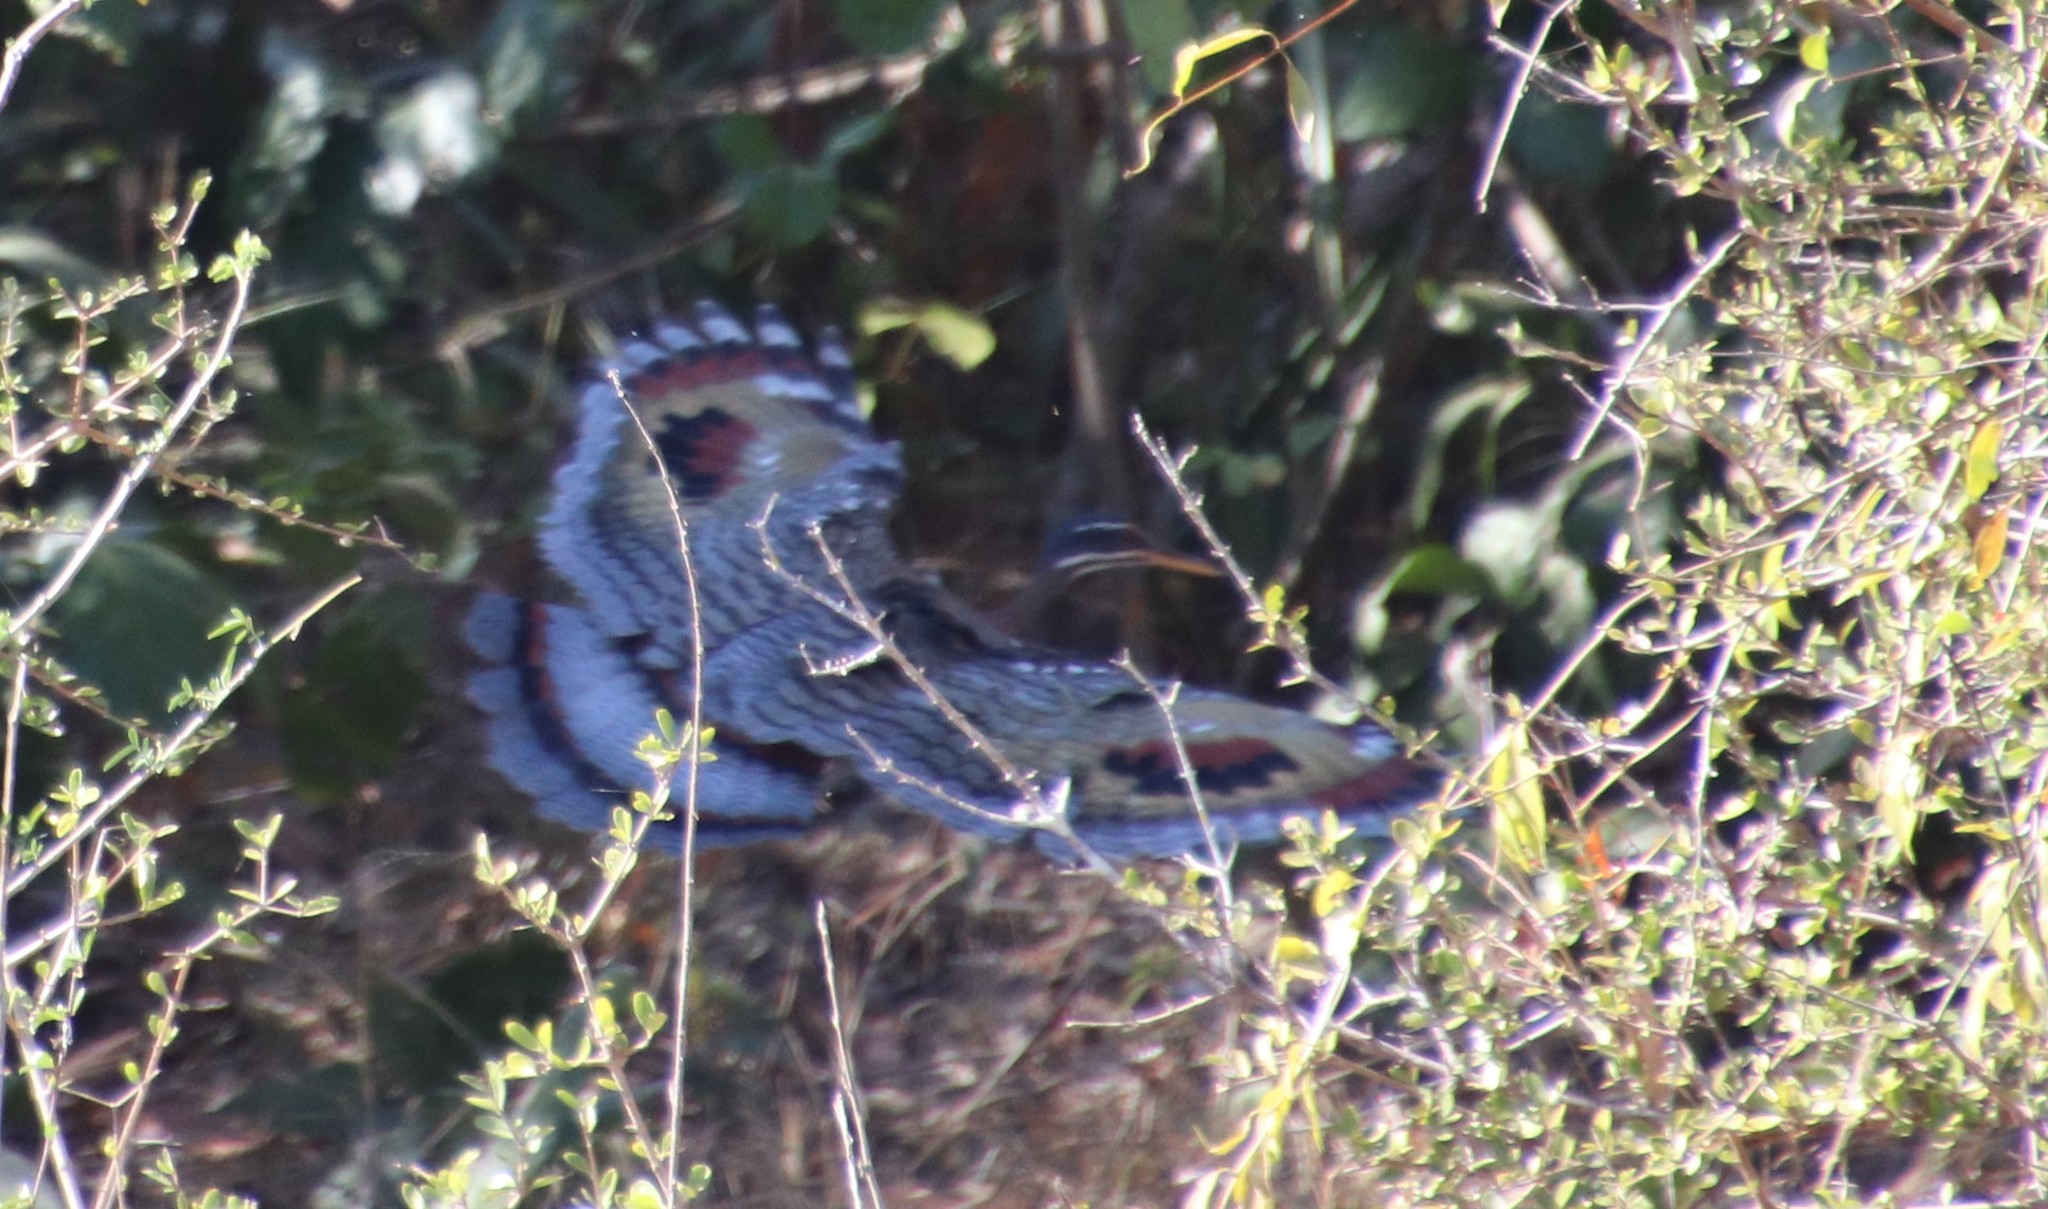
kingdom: Animalia
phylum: Chordata
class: Aves
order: Eurypygiformes
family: Eurypygidae
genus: Eurypyga
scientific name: Eurypyga helias
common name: Sunbittern
